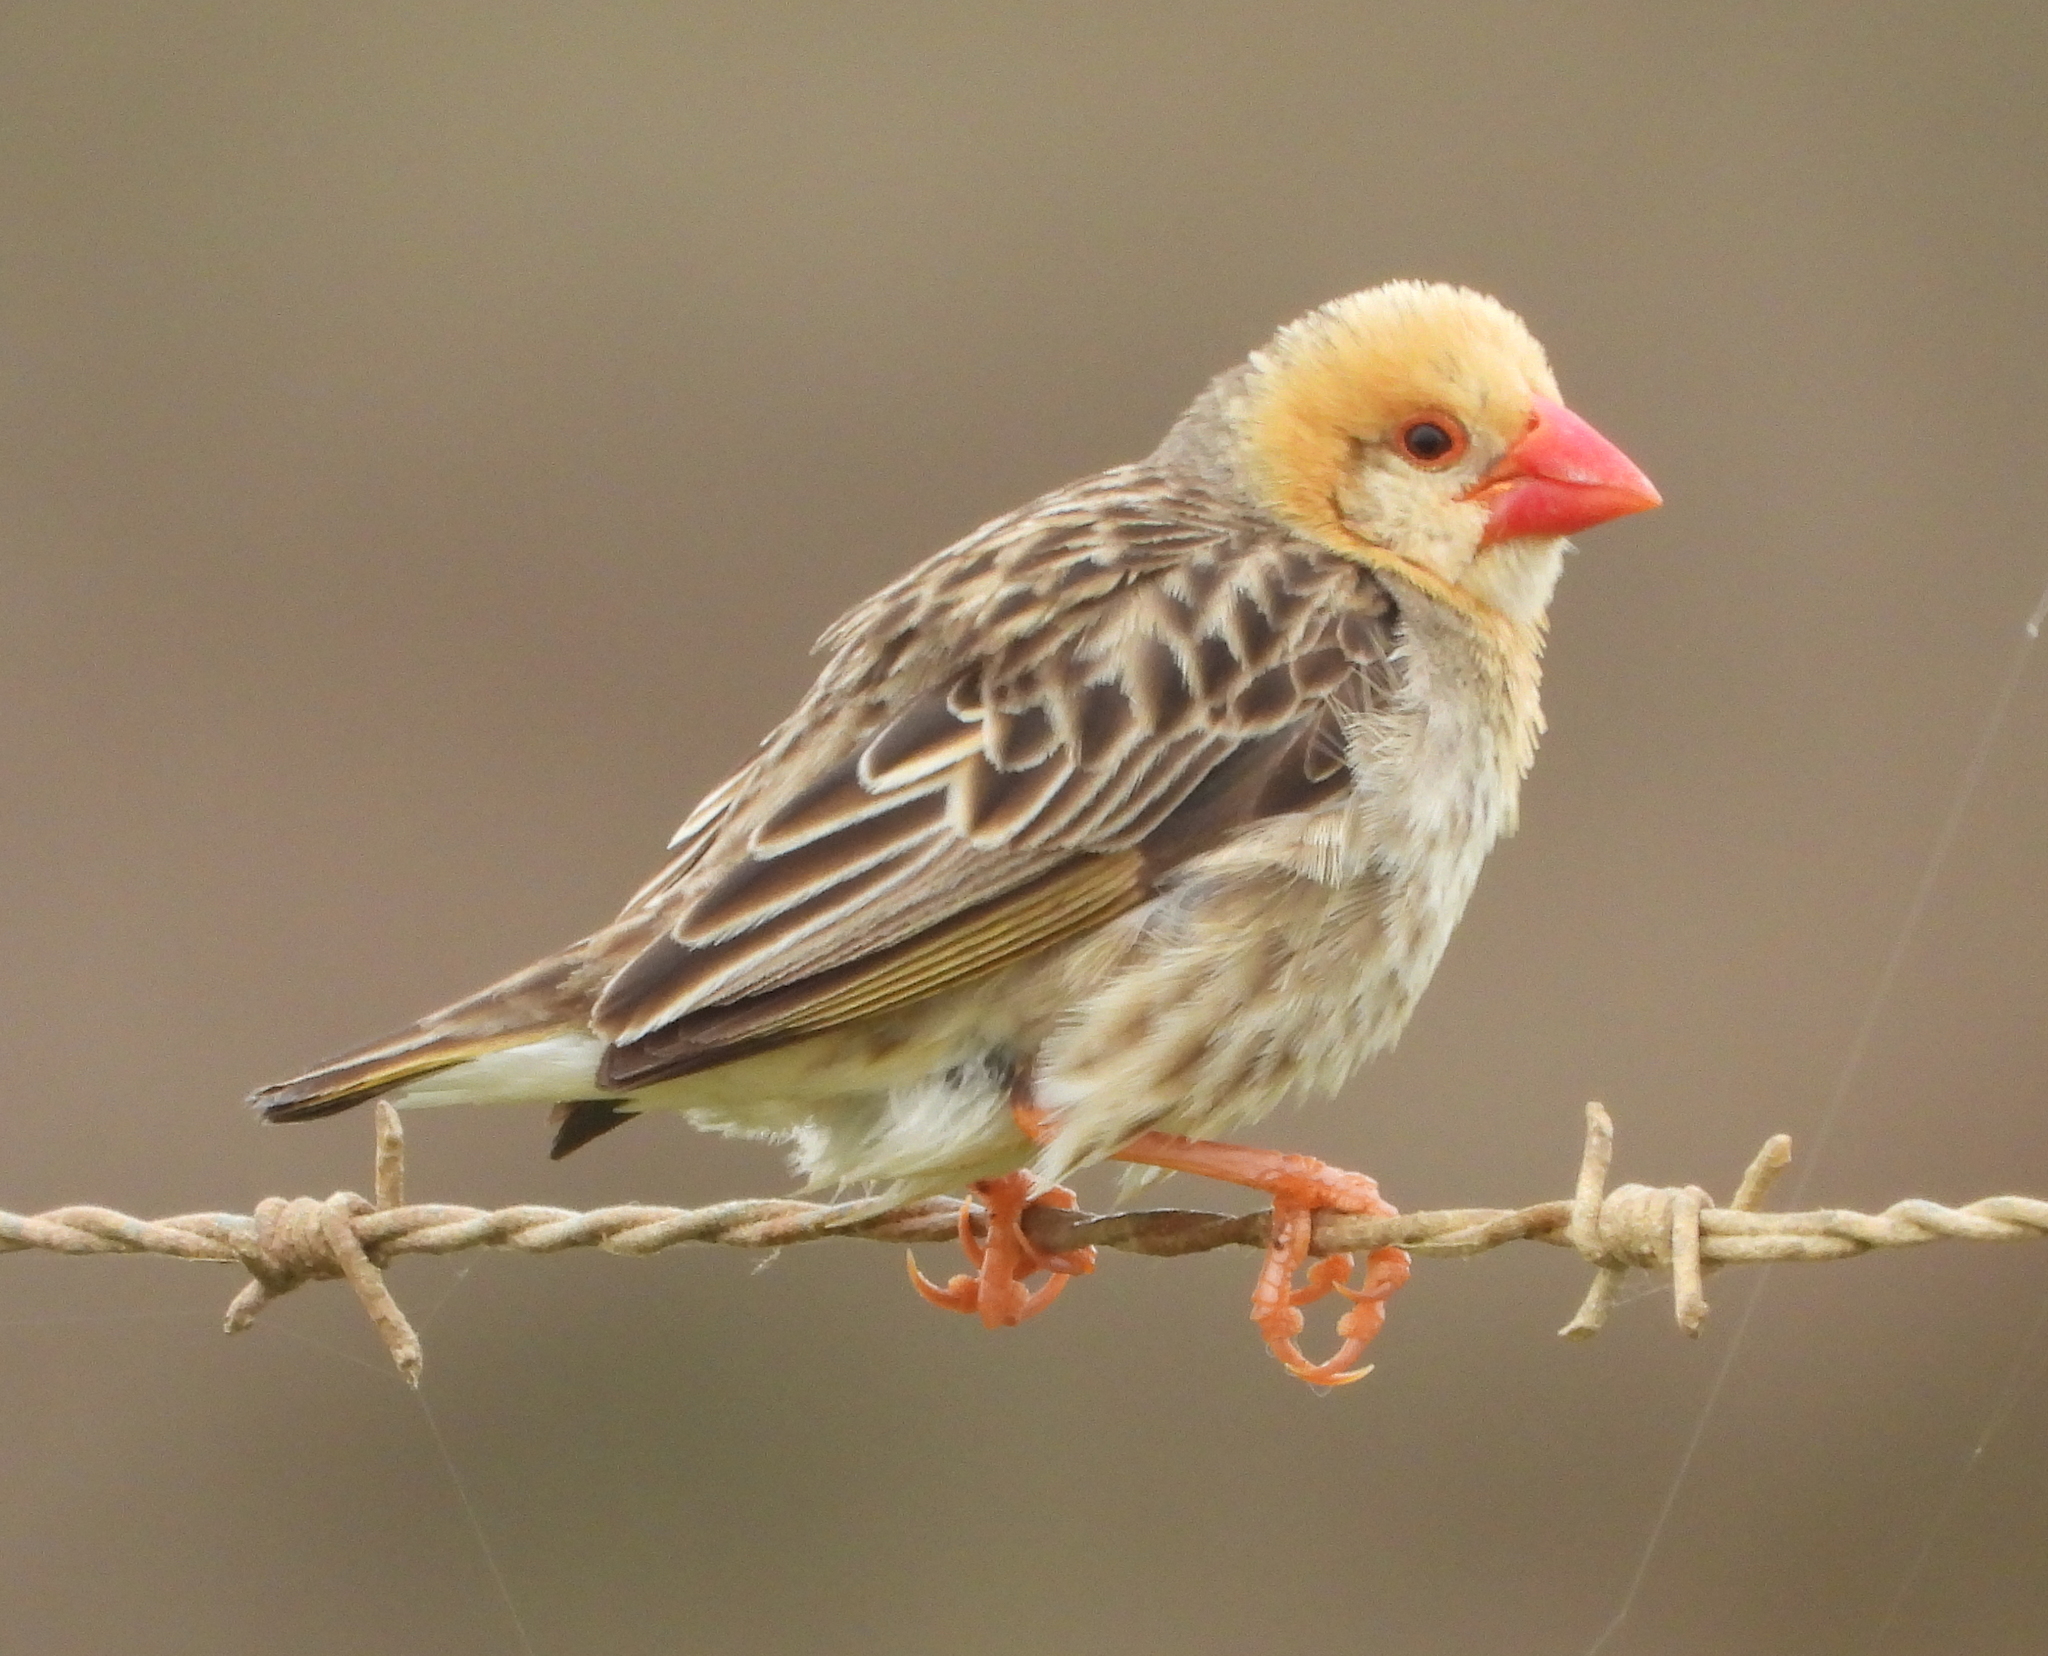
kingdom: Animalia
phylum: Chordata
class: Aves
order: Passeriformes
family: Ploceidae
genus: Quelea
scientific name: Quelea quelea
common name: Red-billed quelea
